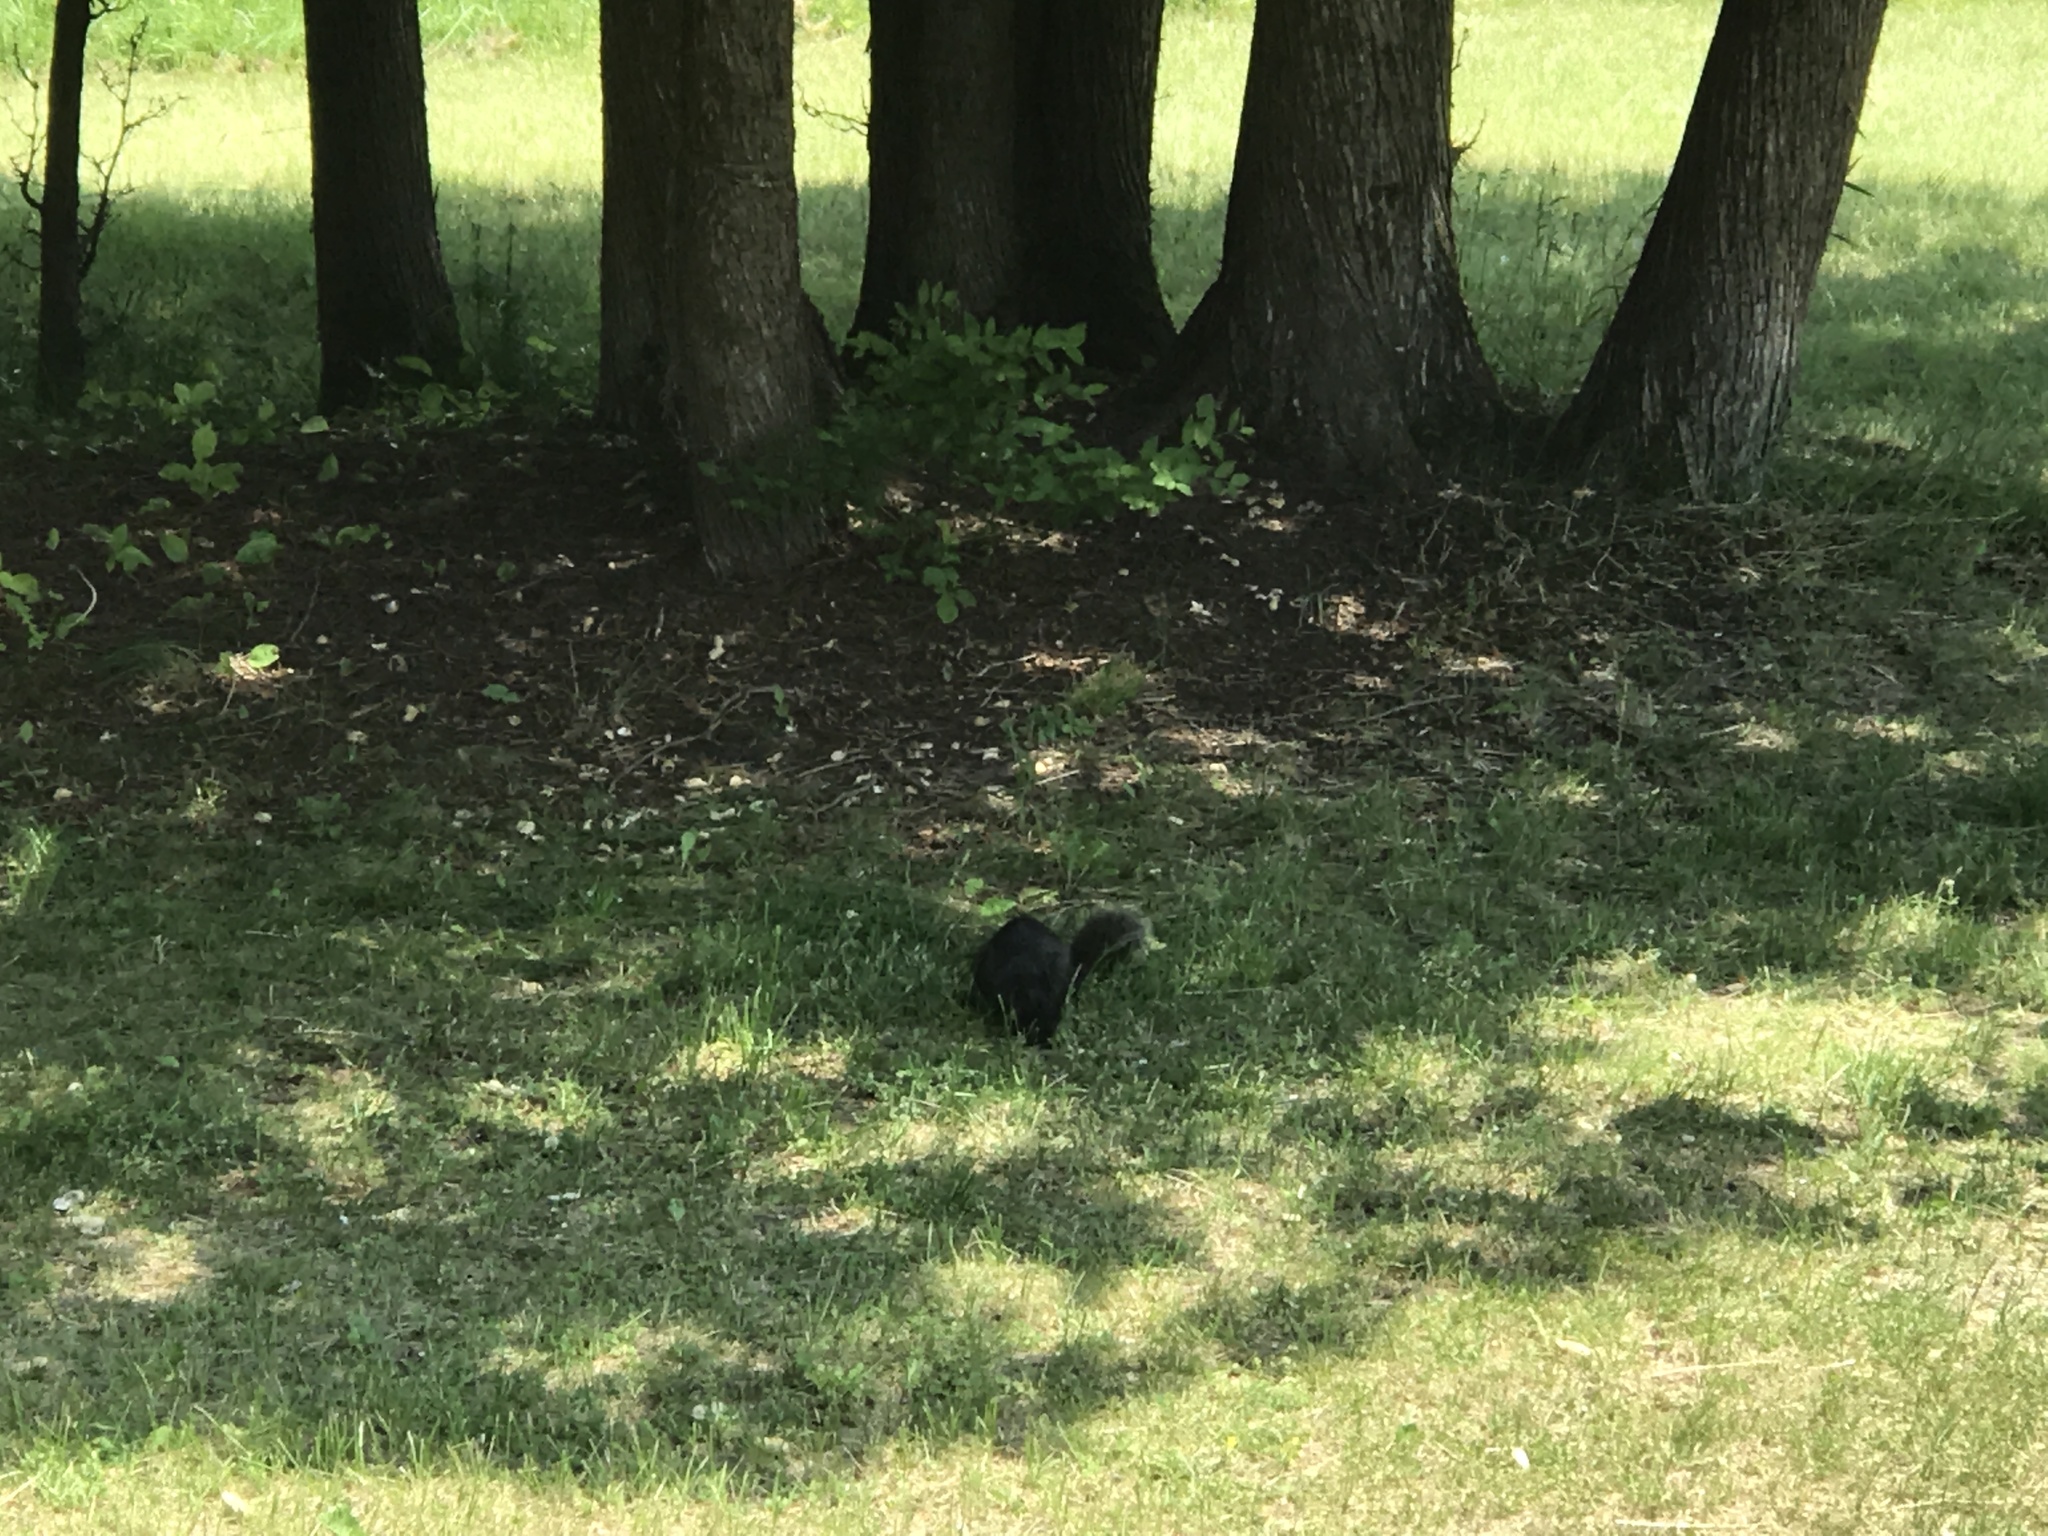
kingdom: Animalia
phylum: Chordata
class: Mammalia
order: Rodentia
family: Sciuridae
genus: Sciurus
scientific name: Sciurus carolinensis
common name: Eastern gray squirrel
